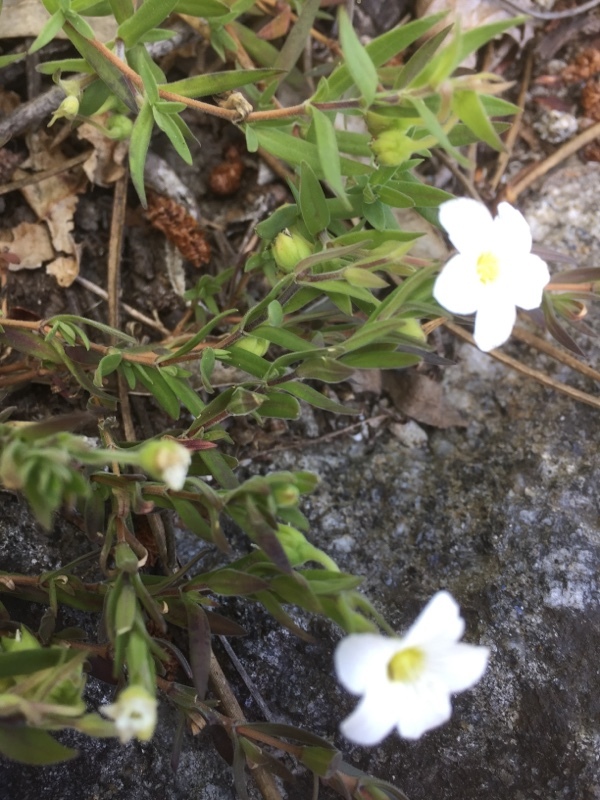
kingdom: Plantae
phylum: Tracheophyta
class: Magnoliopsida
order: Caryophyllales
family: Caryophyllaceae
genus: Arenaria
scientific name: Arenaria montana
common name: Mountain sandwort
